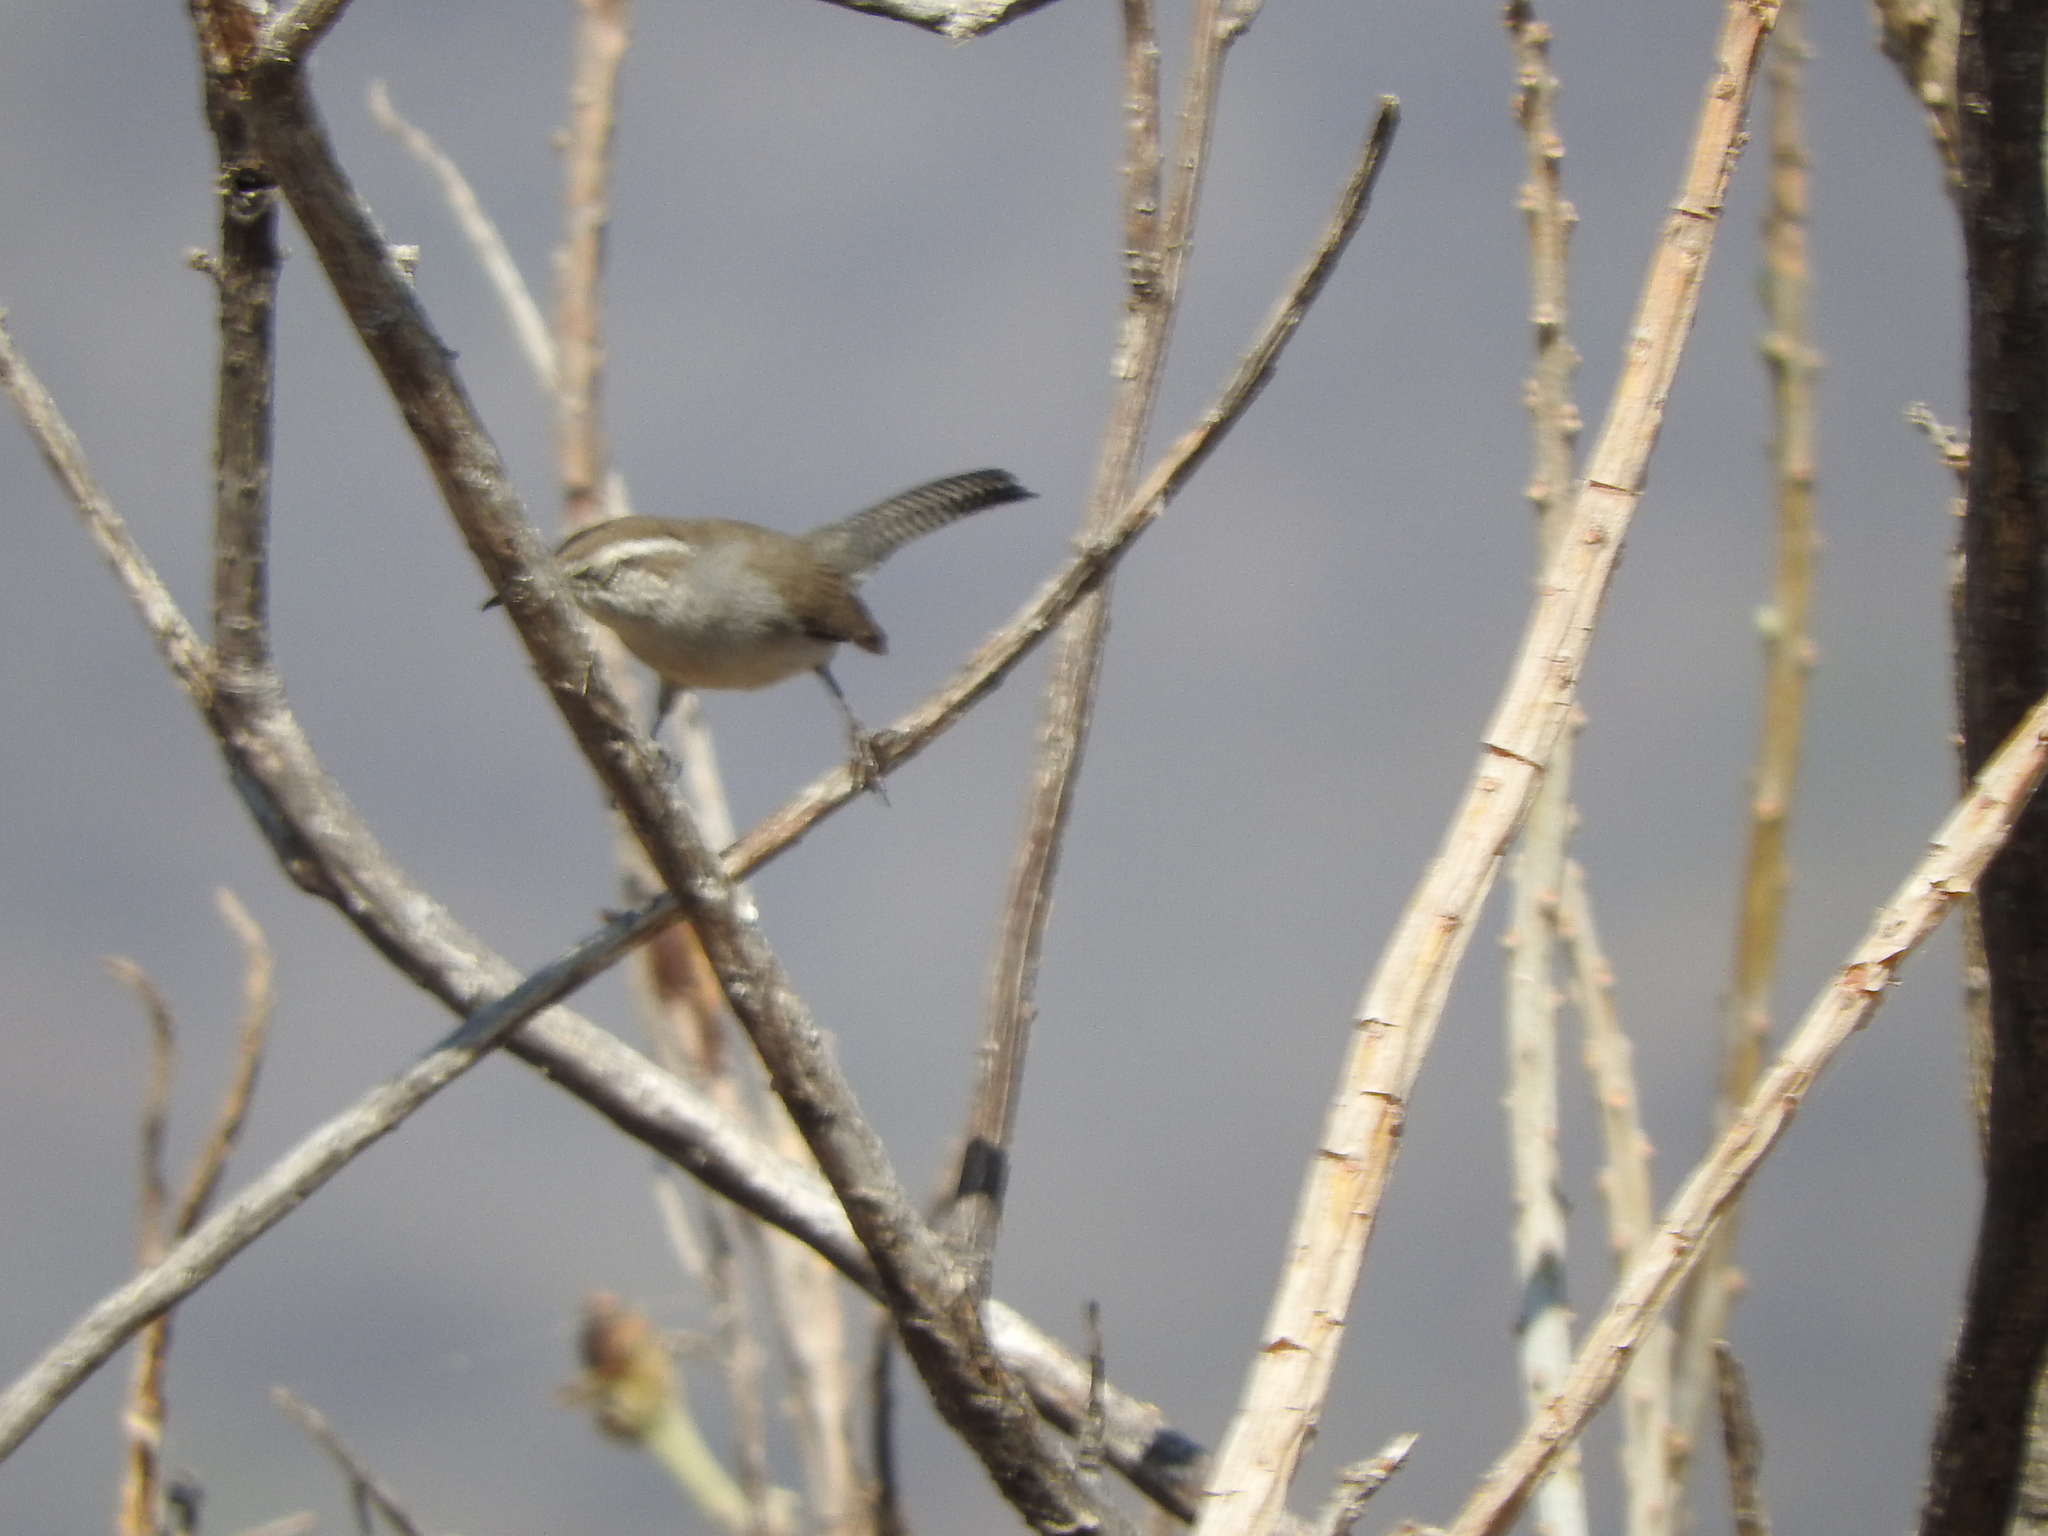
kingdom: Animalia
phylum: Chordata
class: Aves
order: Passeriformes
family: Troglodytidae
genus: Thryomanes
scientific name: Thryomanes bewickii
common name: Bewick's wren
